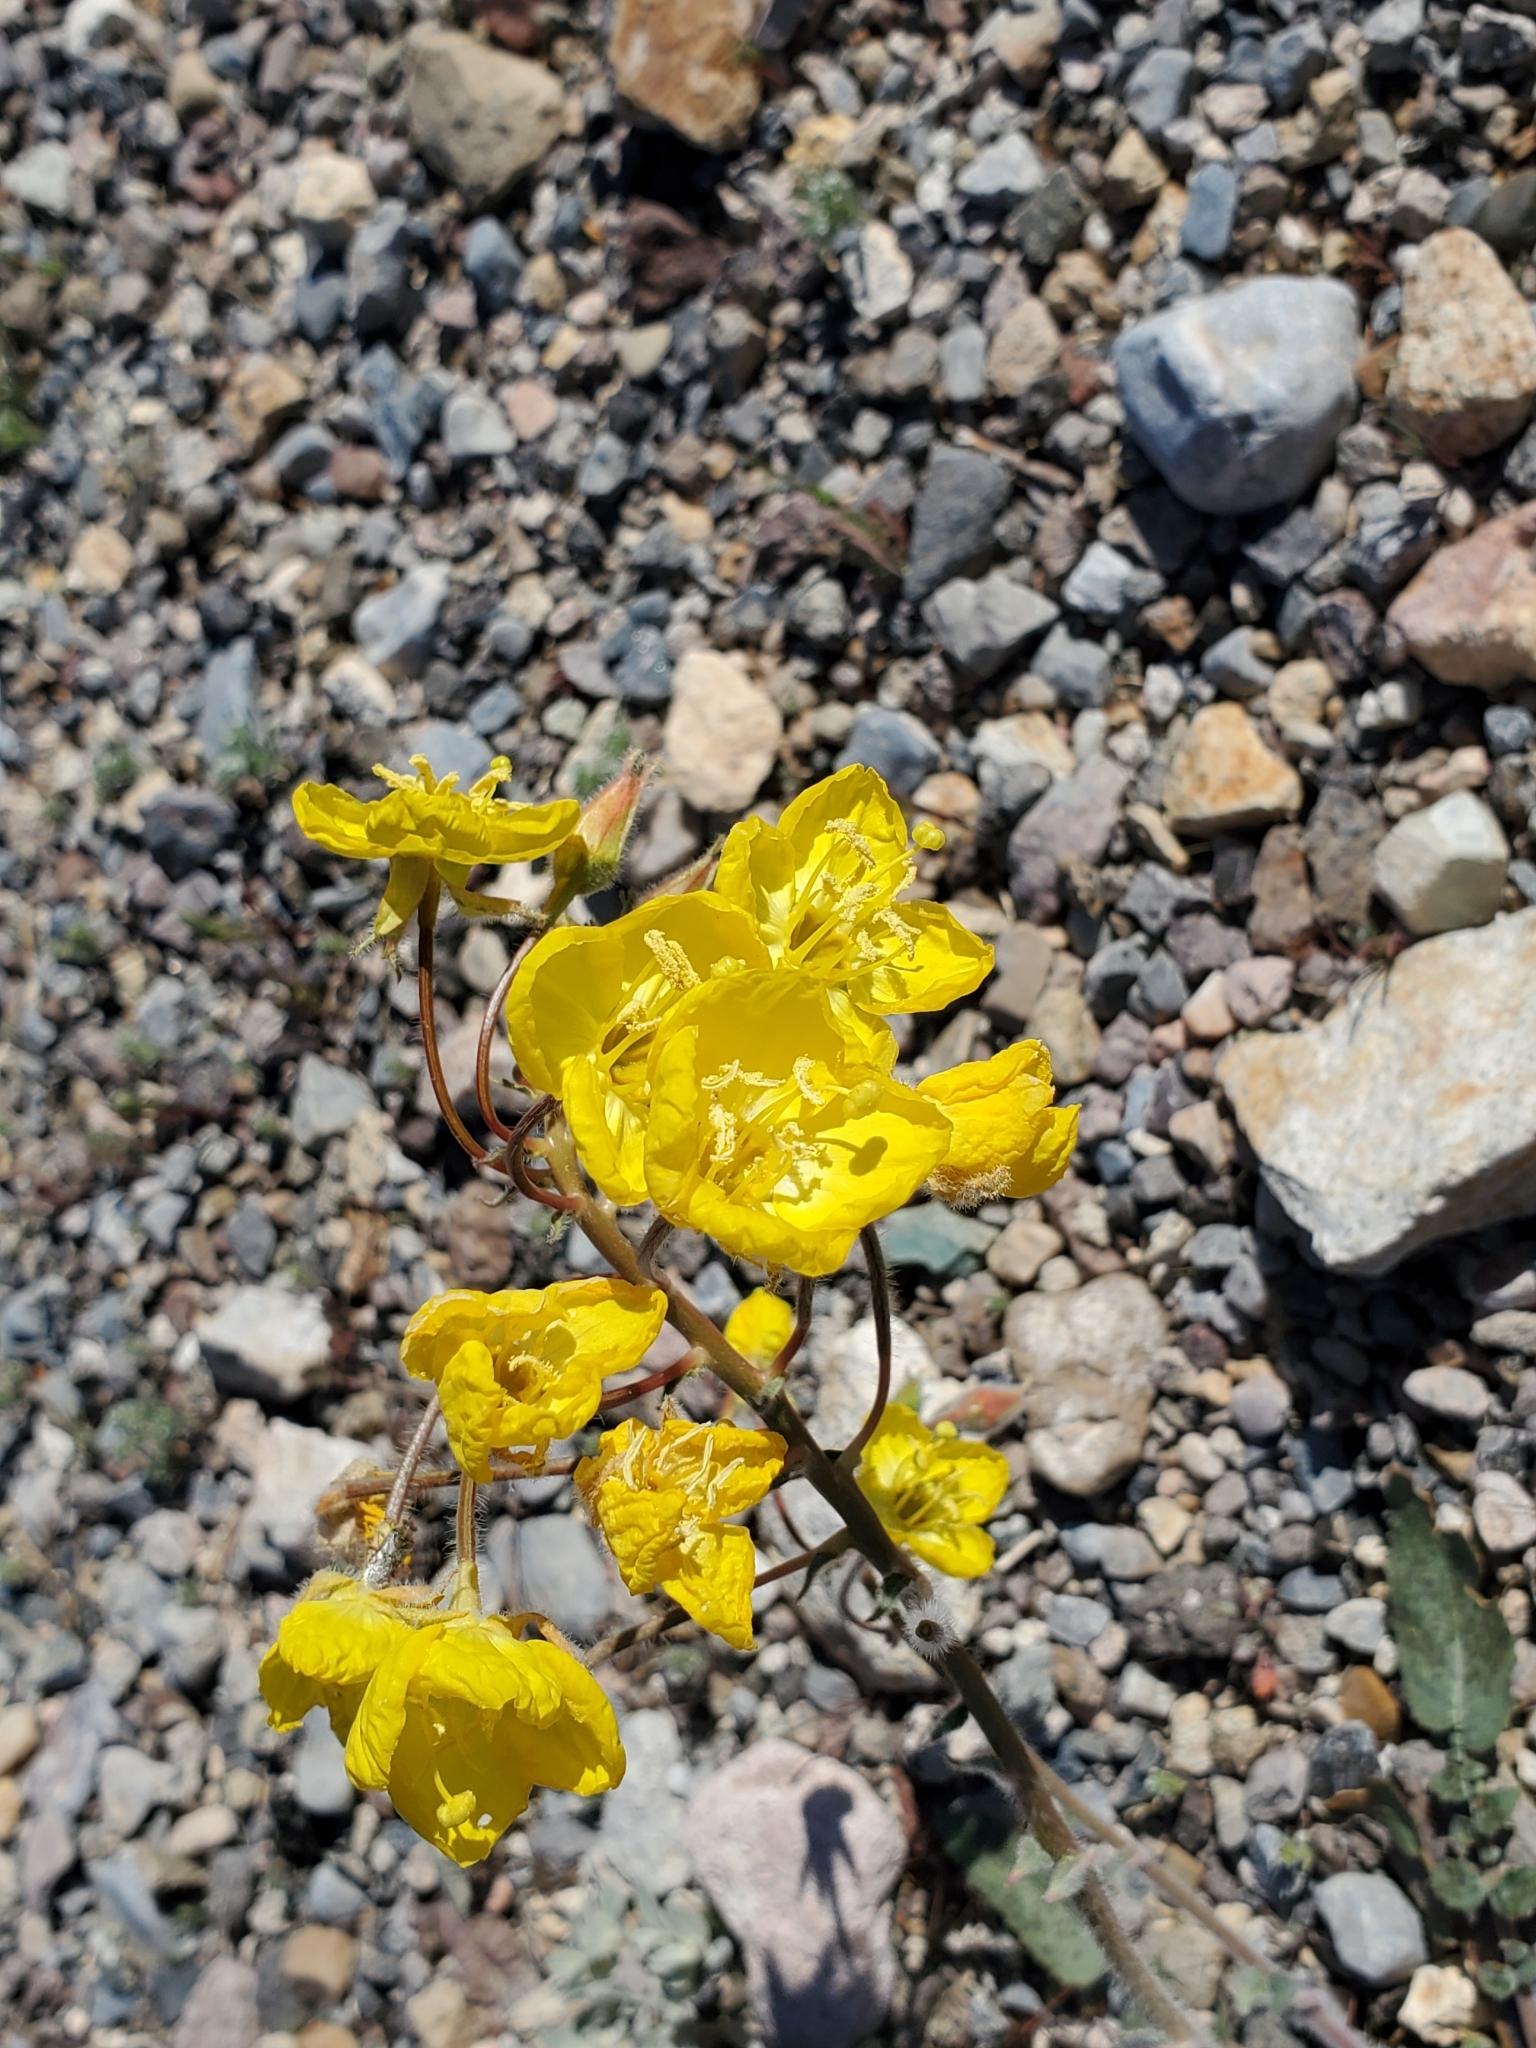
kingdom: Plantae
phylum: Tracheophyta
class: Magnoliopsida
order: Myrtales
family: Onagraceae
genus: Chylismia
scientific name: Chylismia brevipes
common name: Yellow cups
